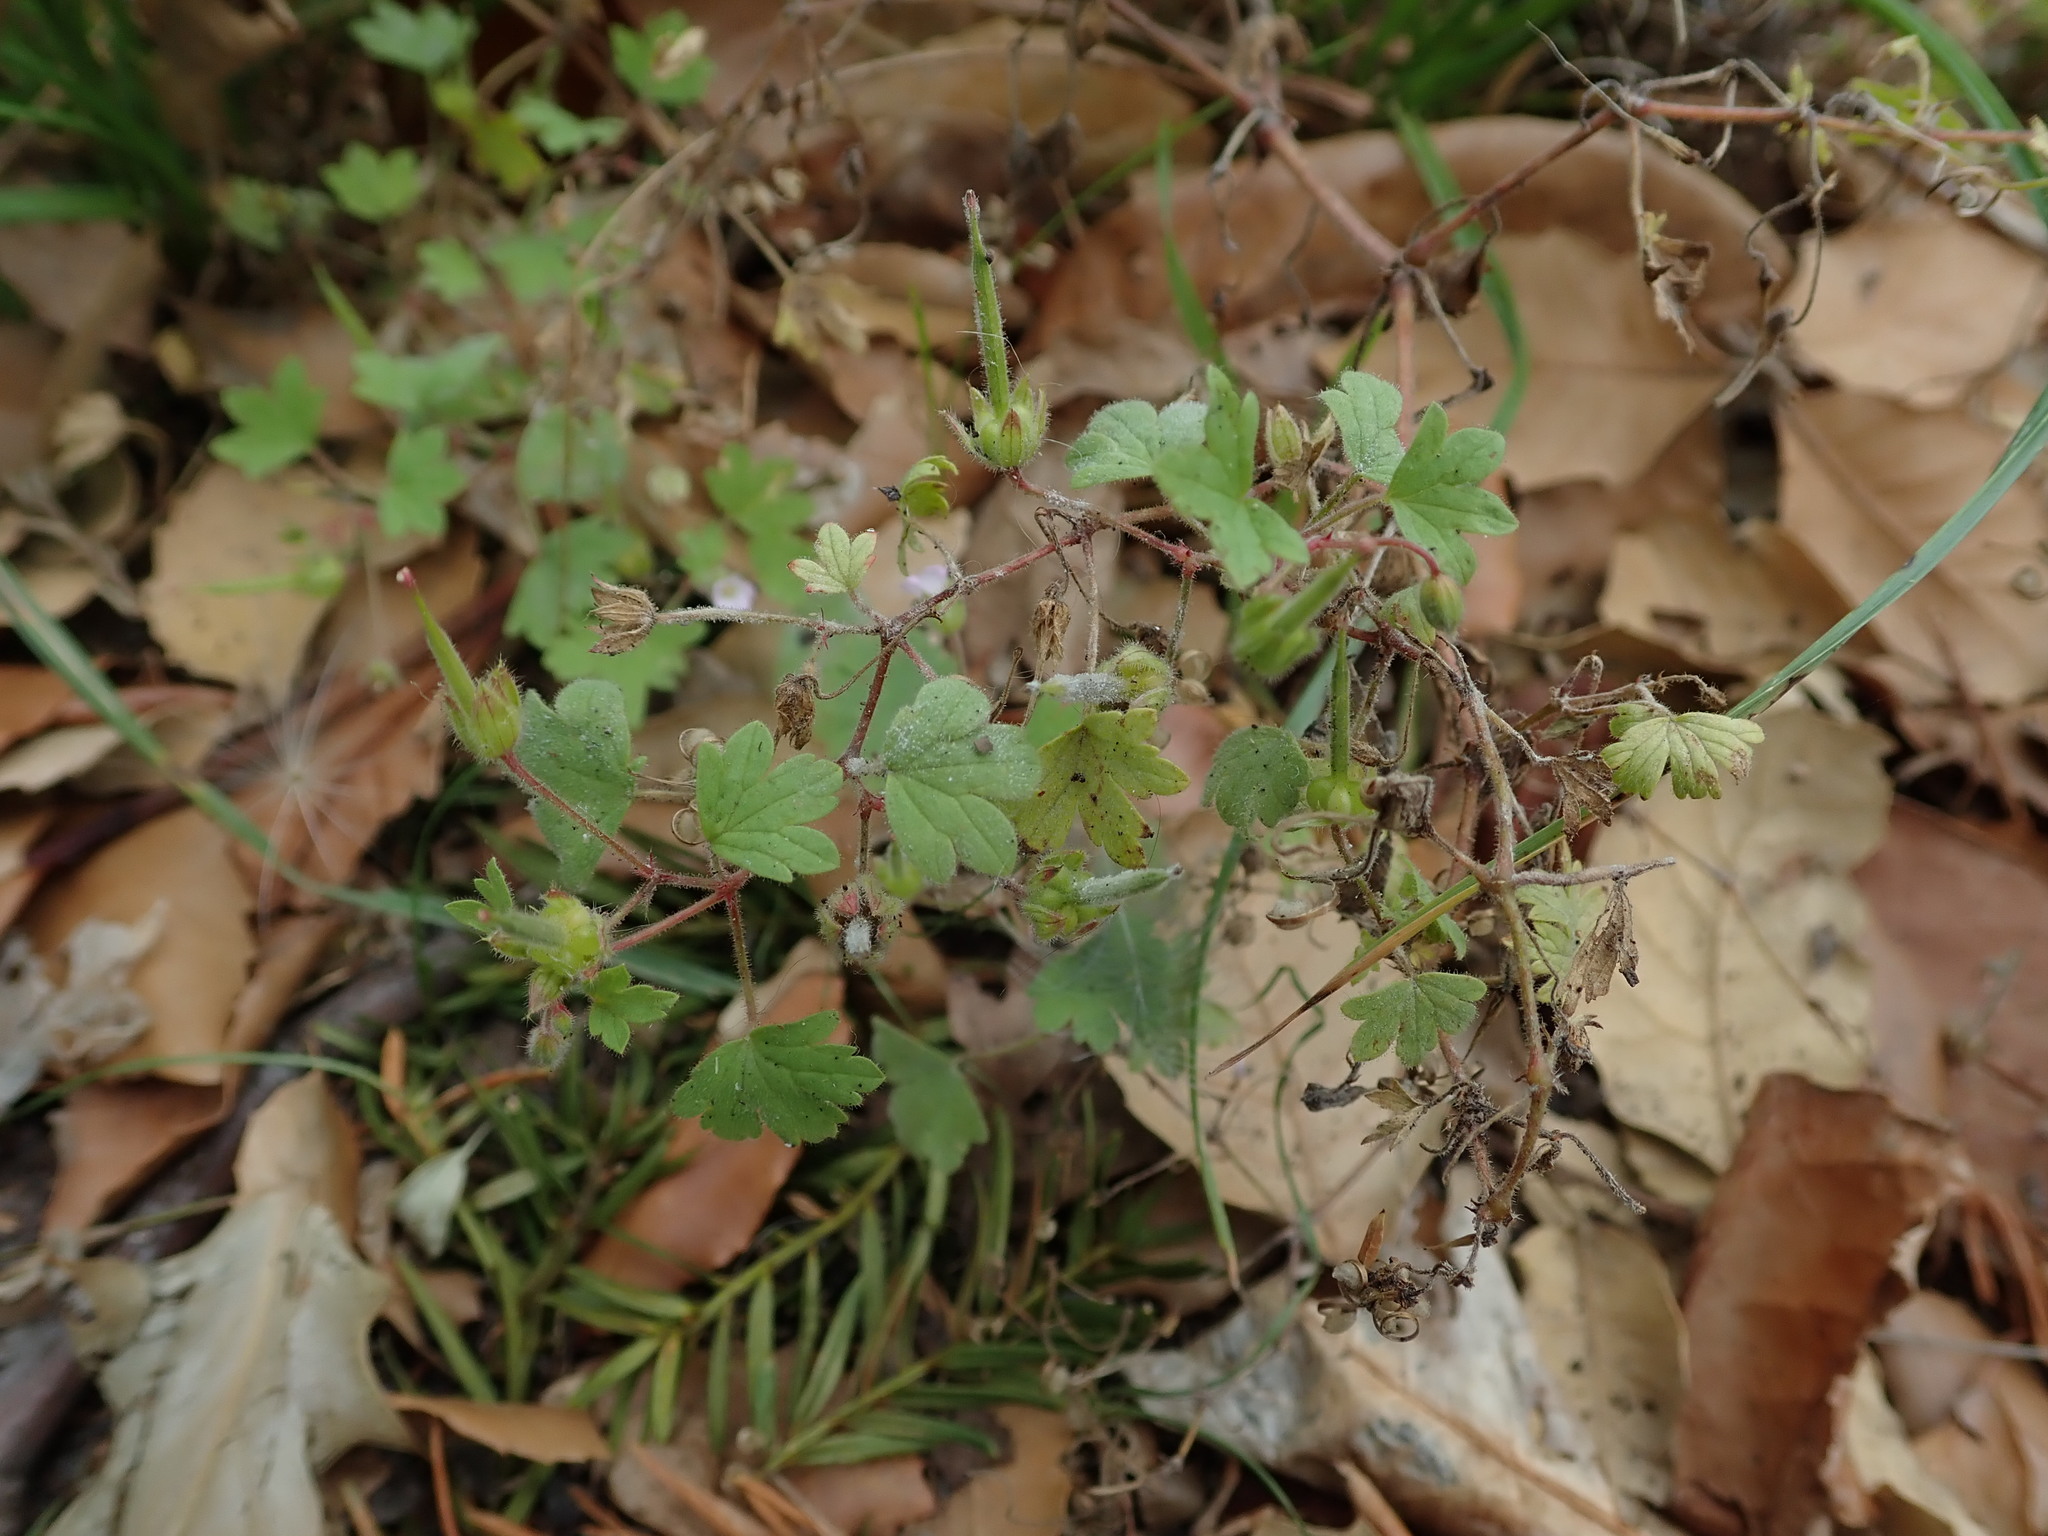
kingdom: Plantae
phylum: Tracheophyta
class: Magnoliopsida
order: Geraniales
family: Geraniaceae
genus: Geranium
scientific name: Geranium rotundifolium
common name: Round-leaved crane's-bill
